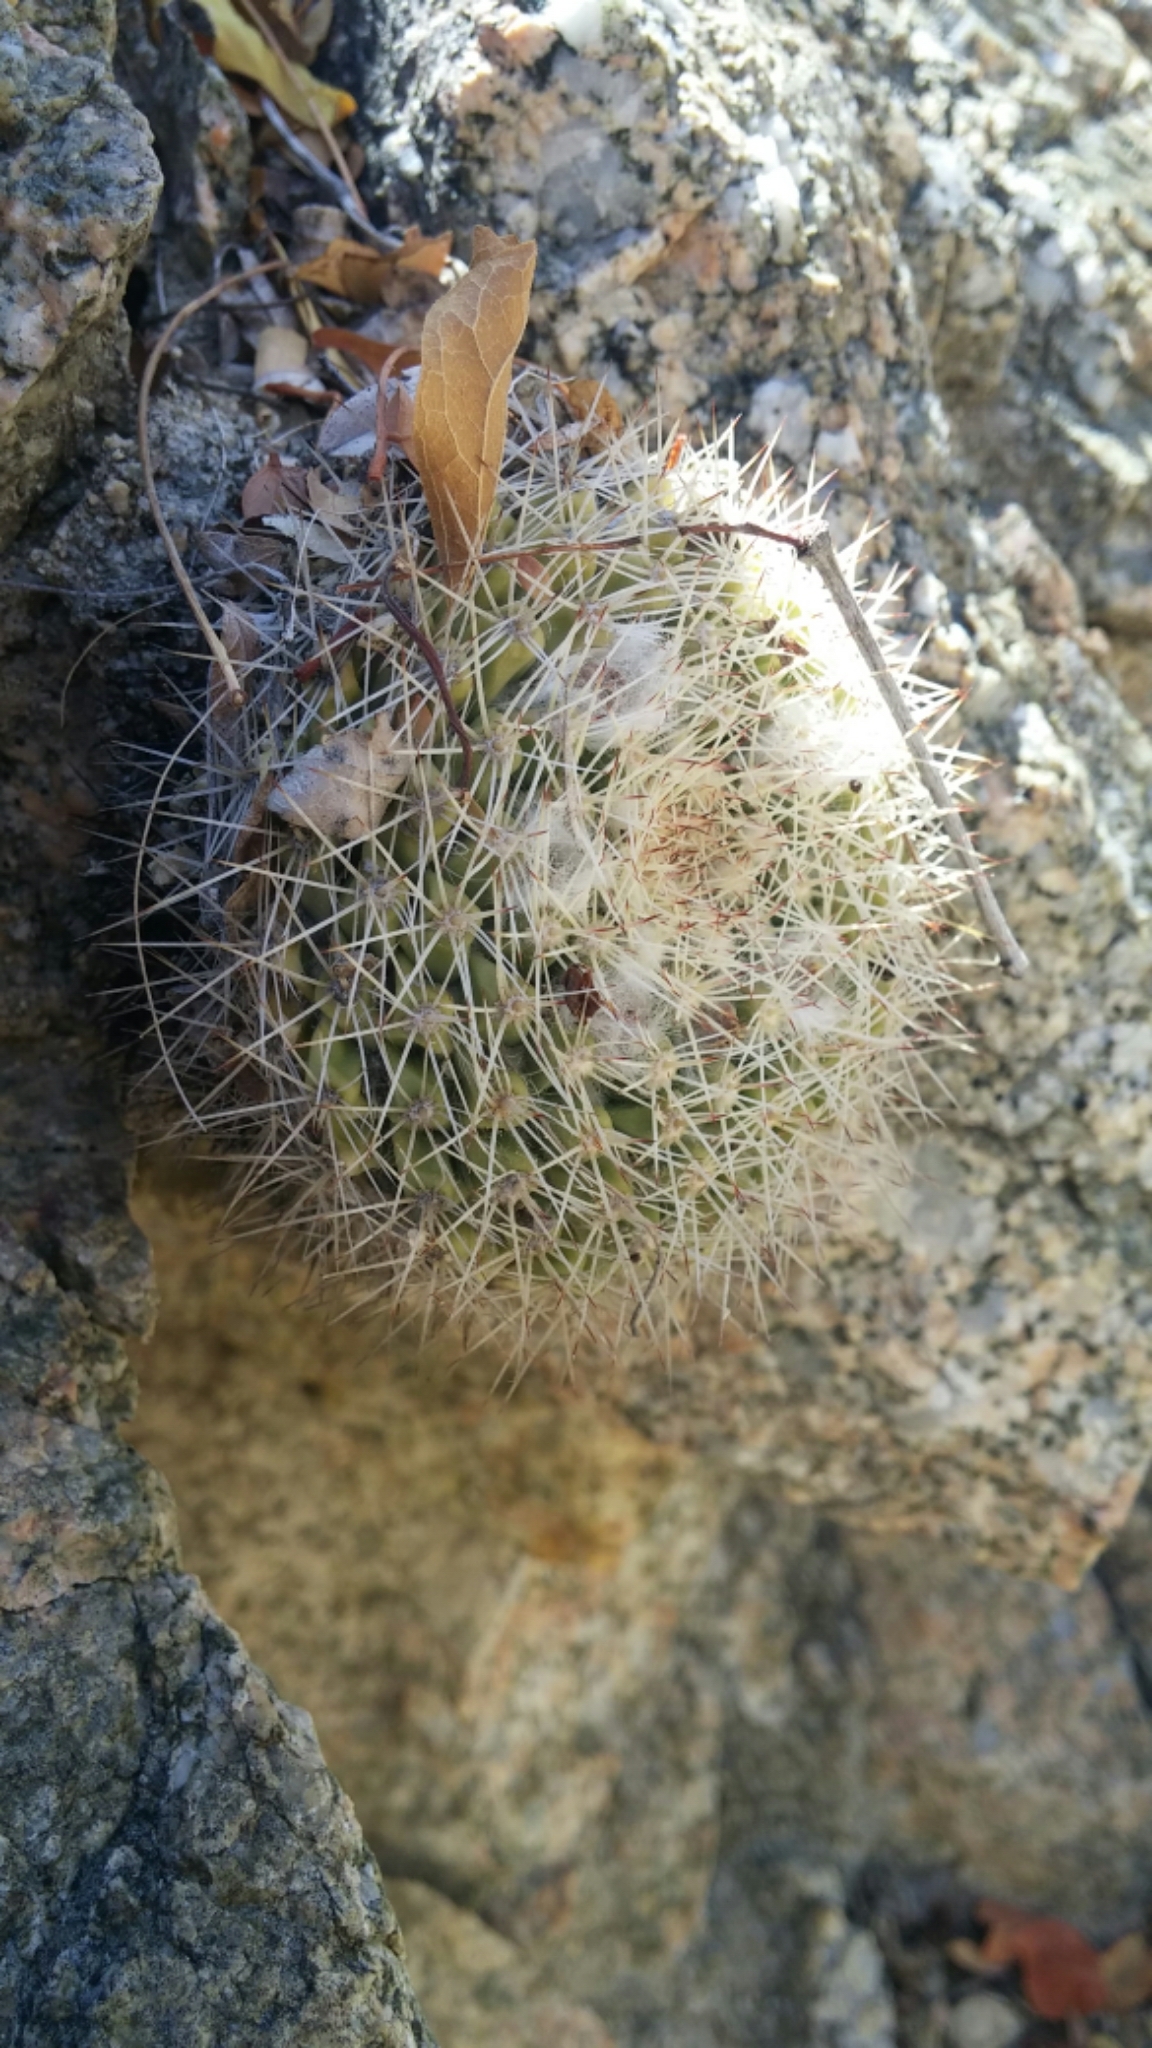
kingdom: Plantae
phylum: Tracheophyta
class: Magnoliopsida
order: Caryophyllales
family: Cactaceae
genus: Mammillaria
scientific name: Mammillaria petrophila
